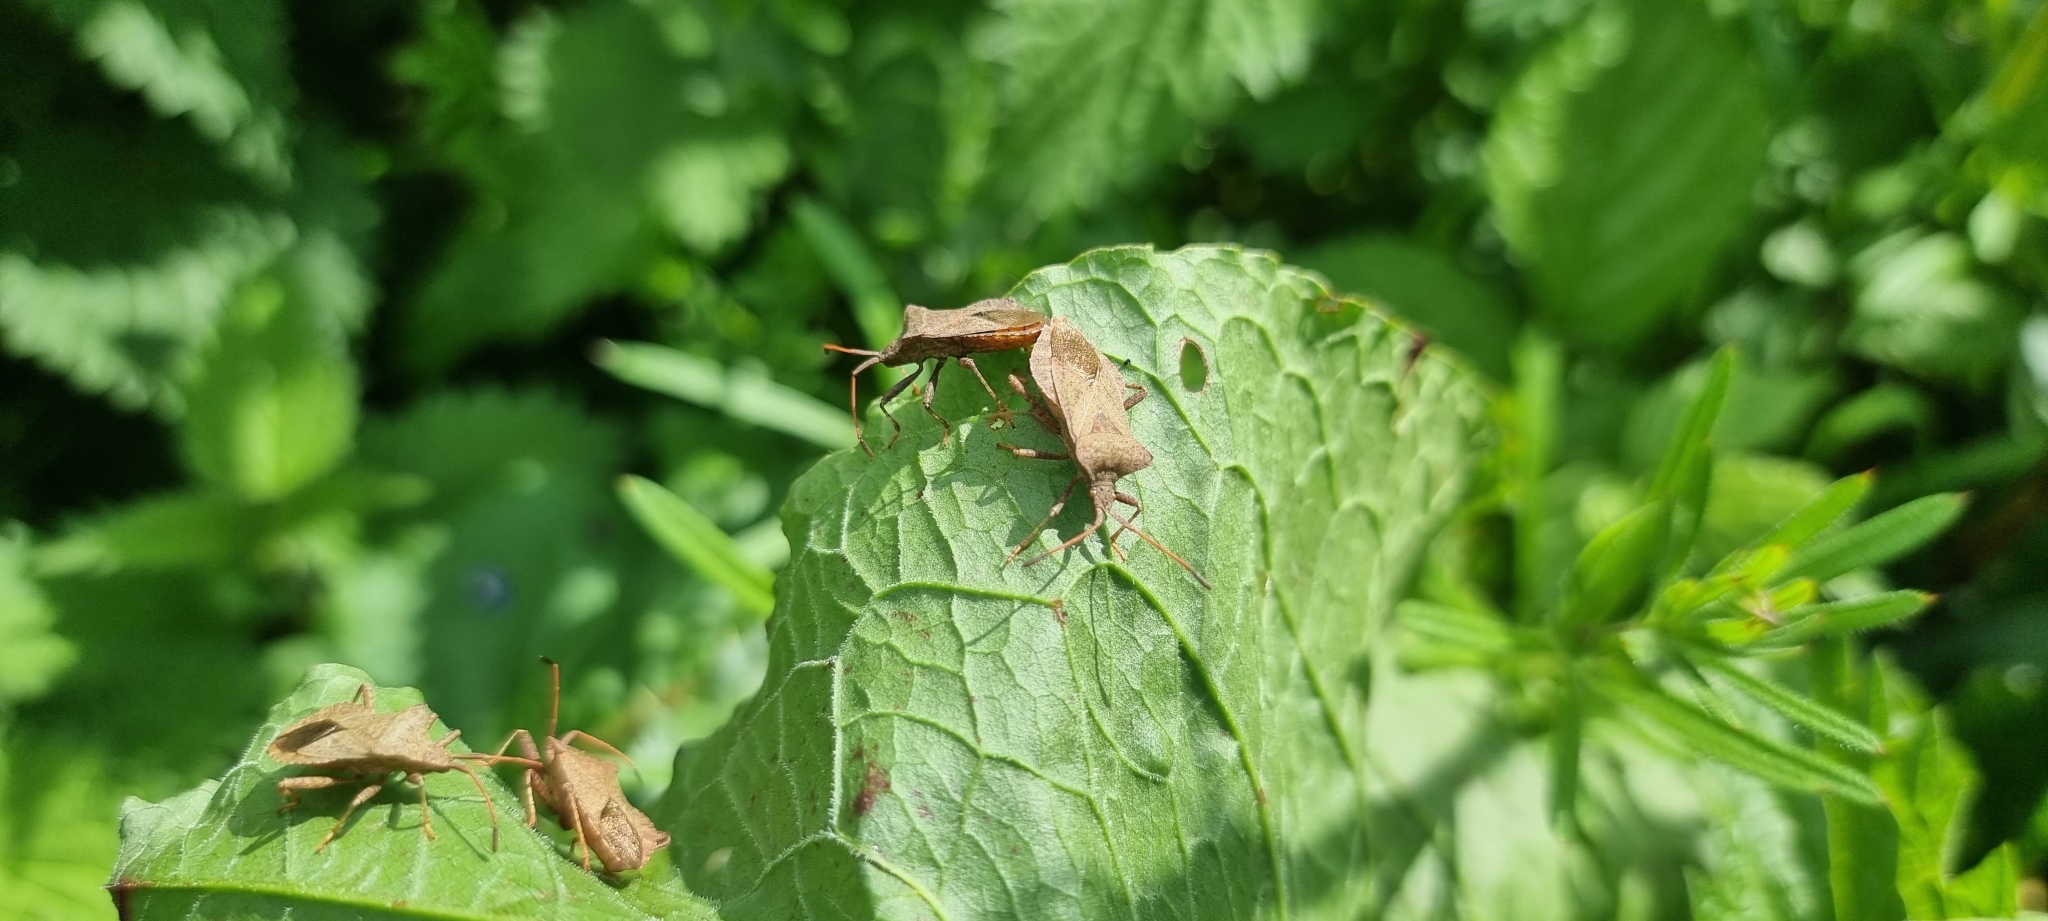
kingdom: Animalia
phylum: Arthropoda
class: Insecta
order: Hemiptera
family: Coreidae
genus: Coreus
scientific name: Coreus marginatus
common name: Dock bug
